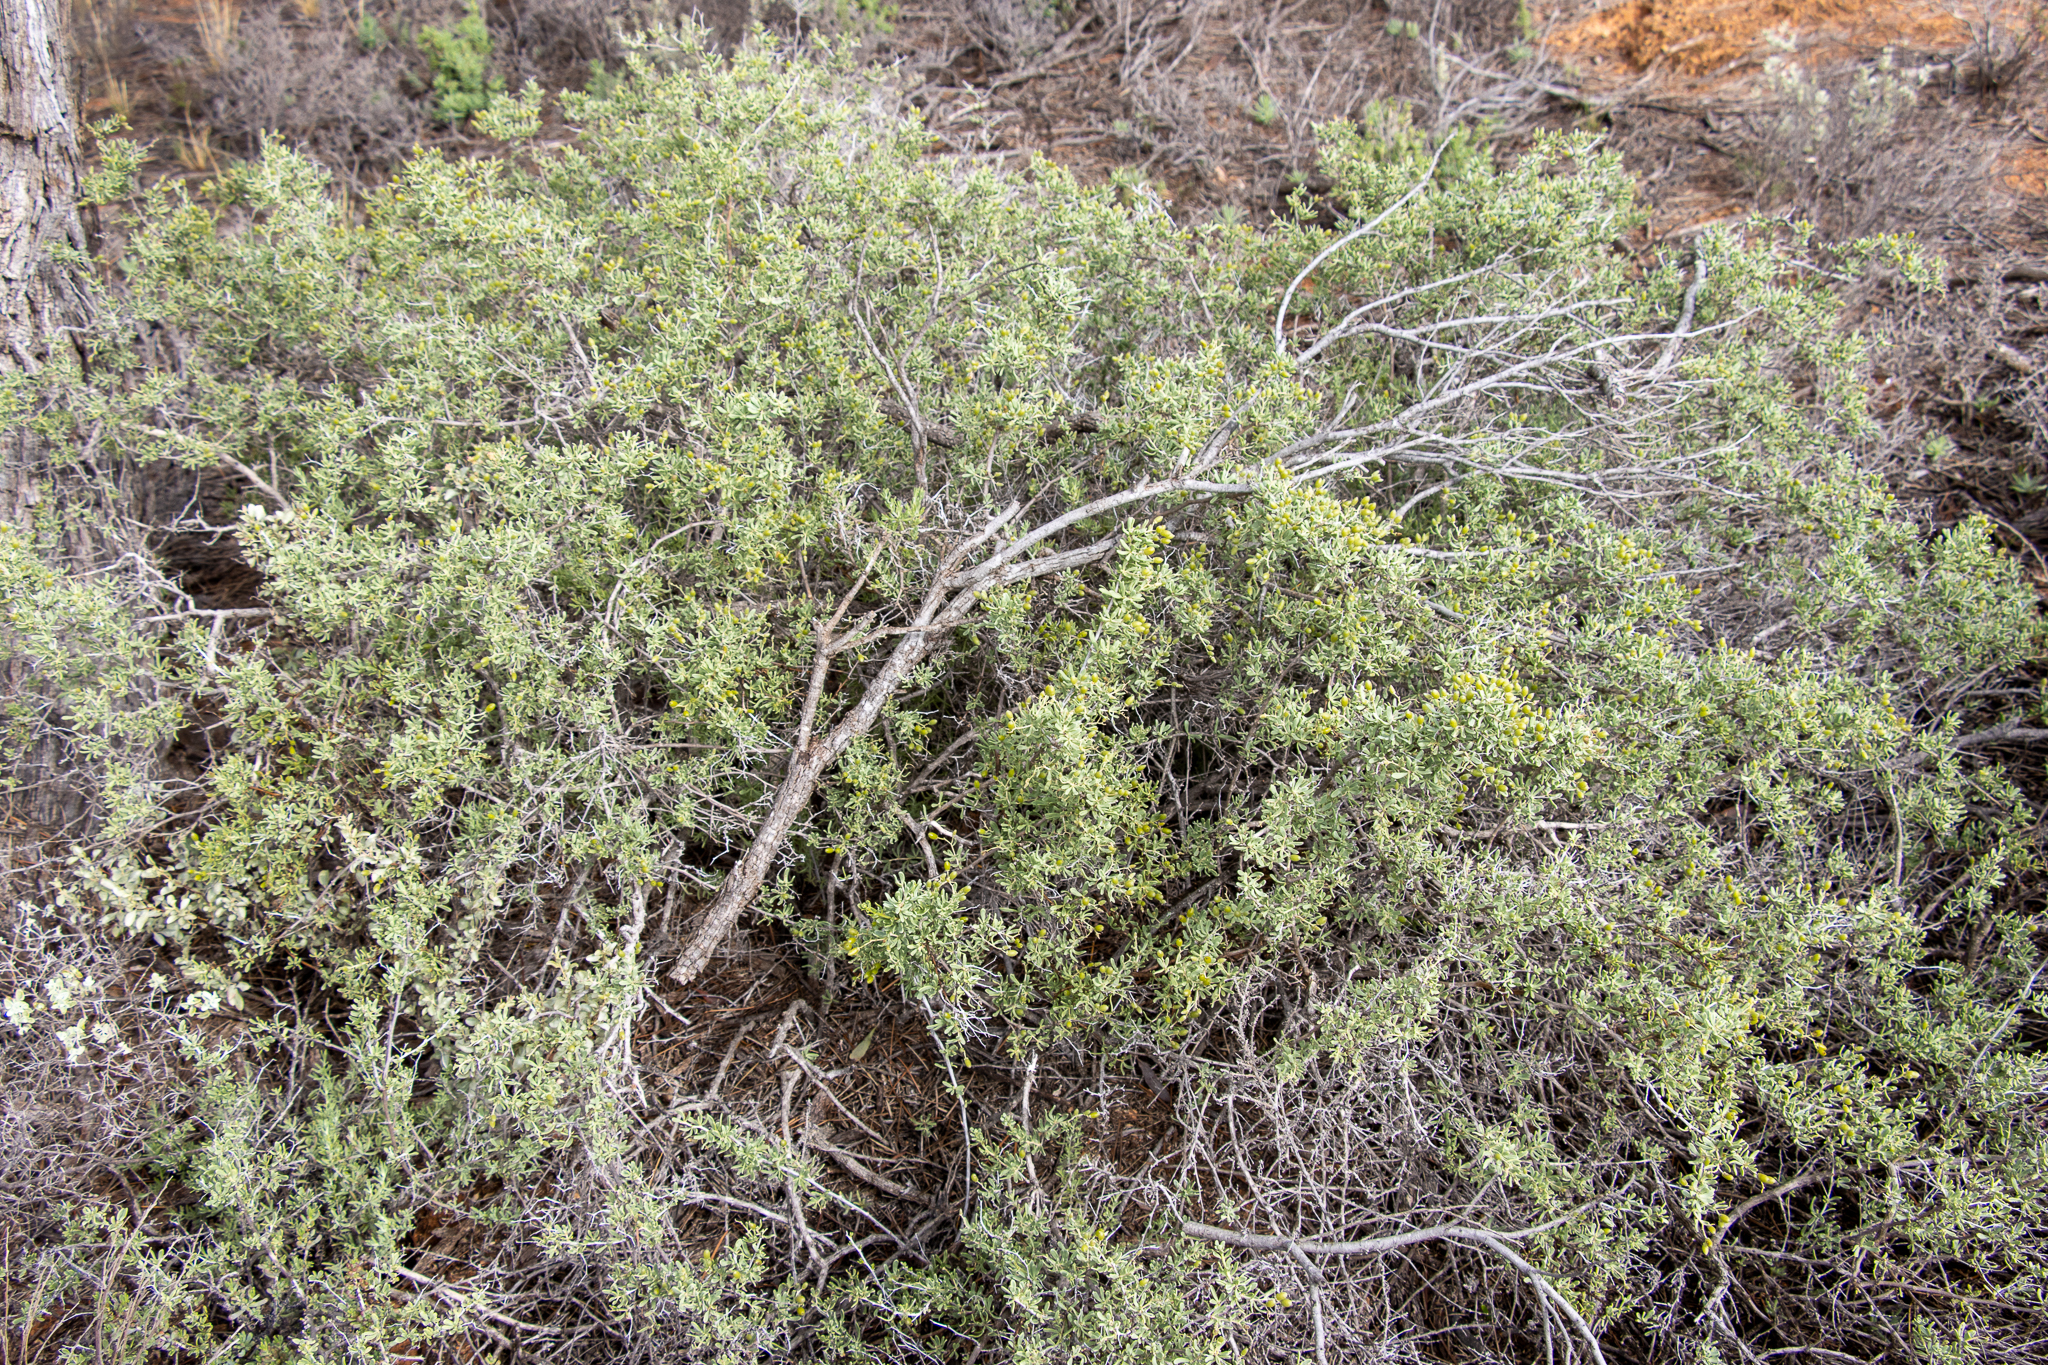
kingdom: Plantae
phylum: Tracheophyta
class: Magnoliopsida
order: Sapindales
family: Nitrariaceae
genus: Nitraria
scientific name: Nitraria billardierei
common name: Dillonbush
